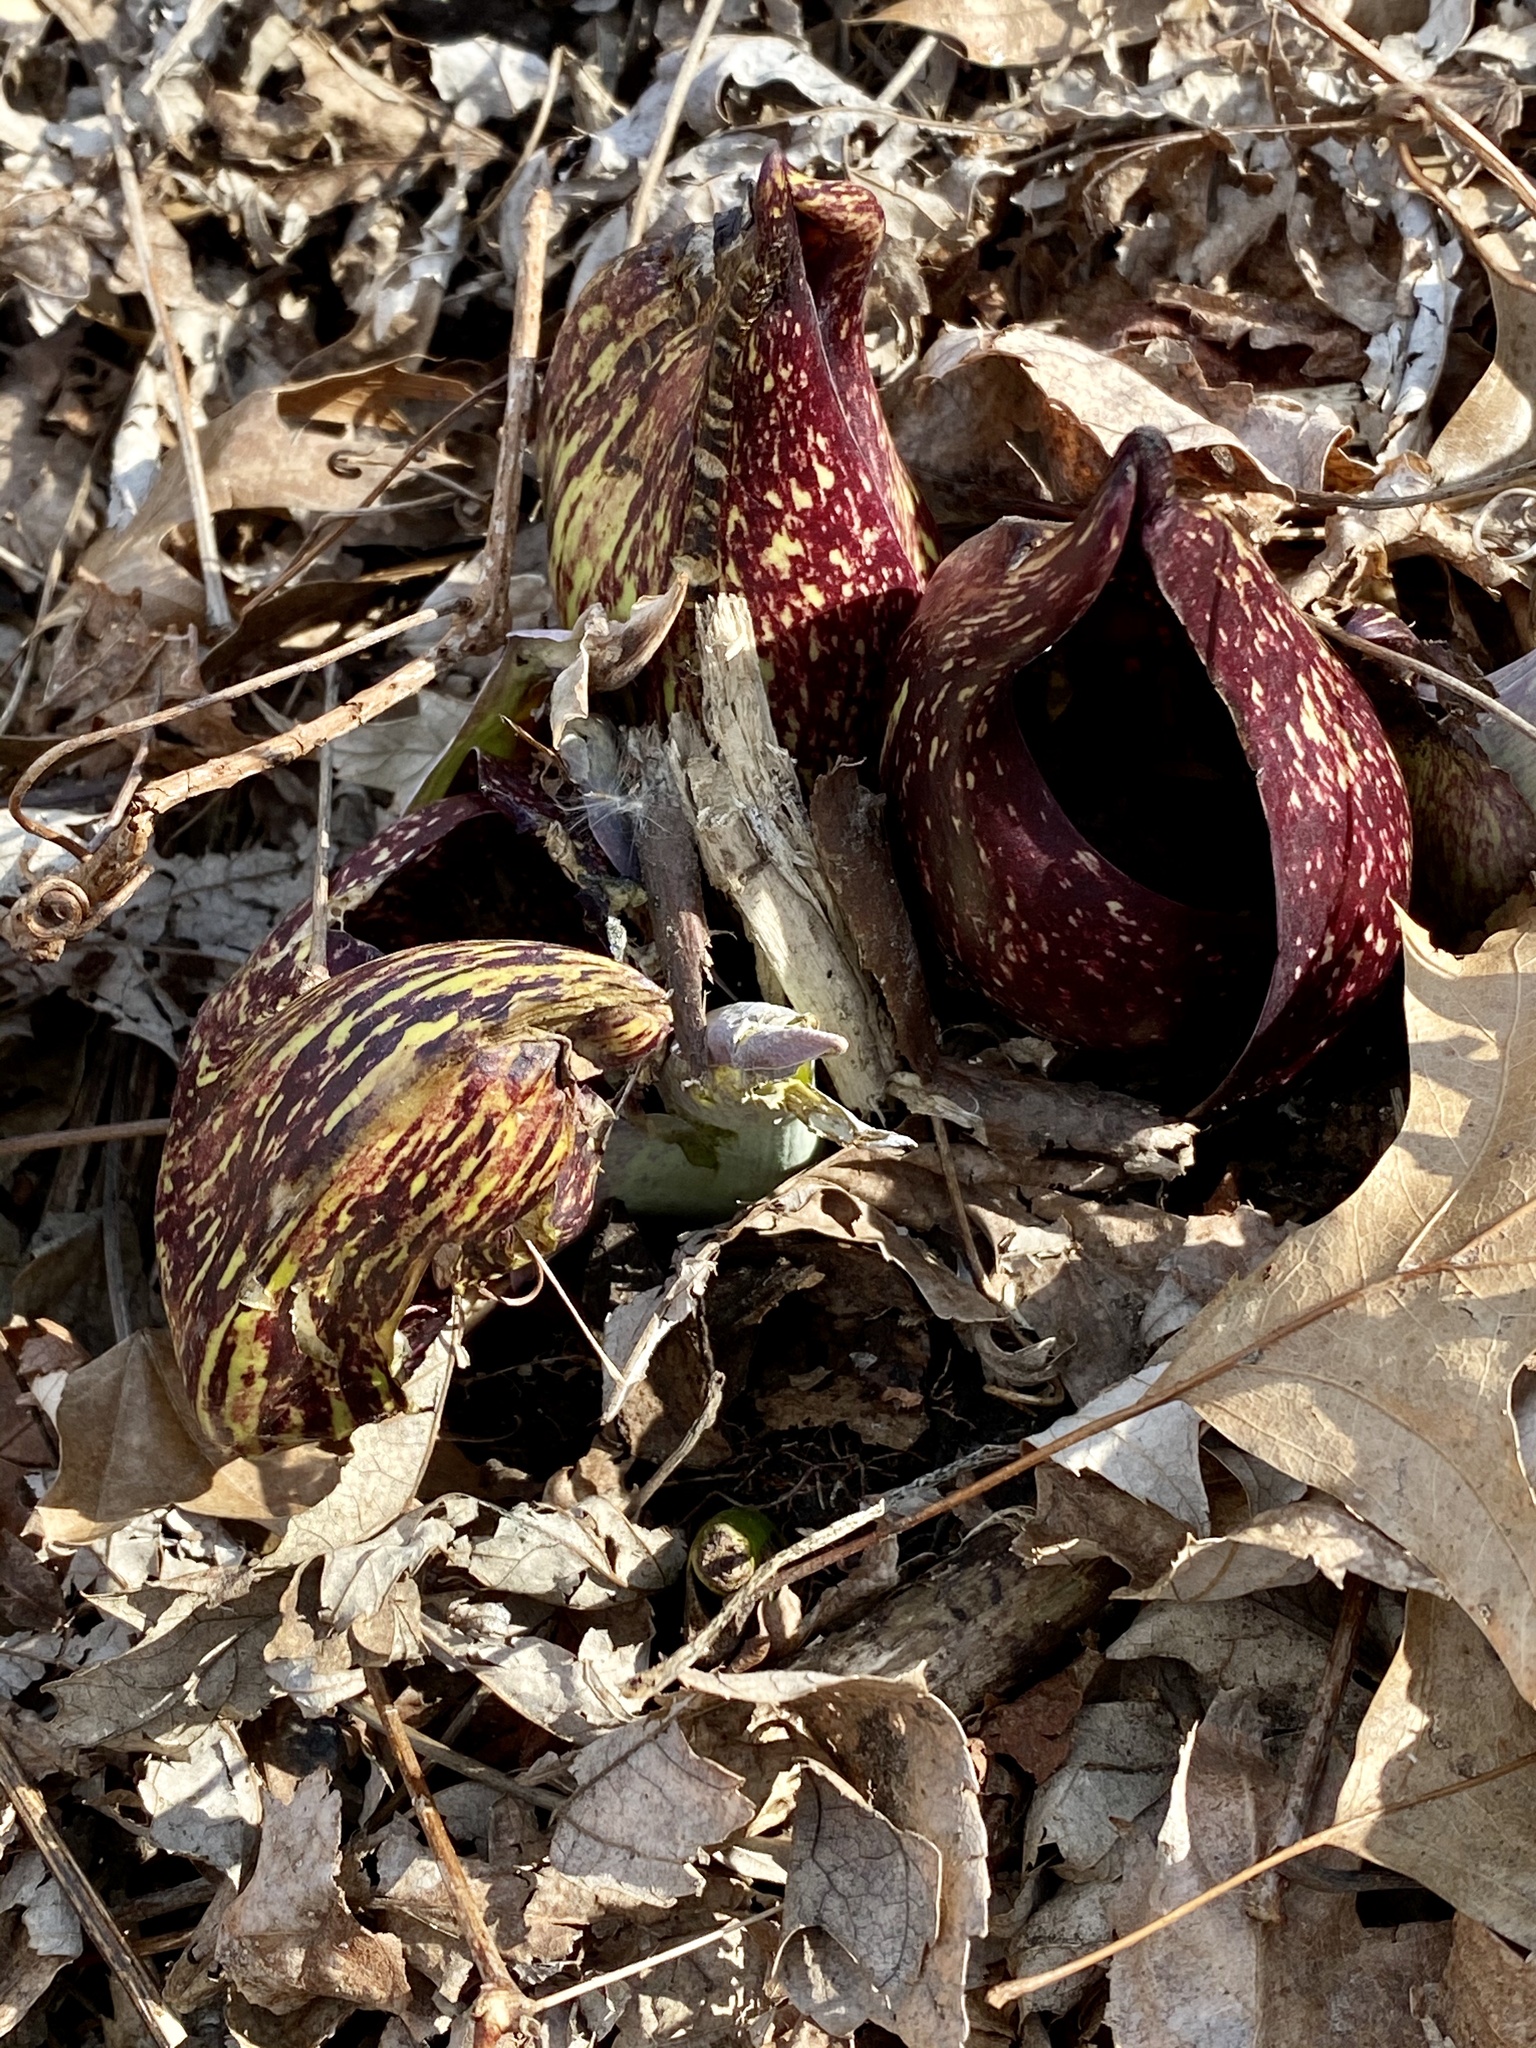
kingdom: Plantae
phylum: Tracheophyta
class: Liliopsida
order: Alismatales
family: Araceae
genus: Symplocarpus
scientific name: Symplocarpus foetidus
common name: Eastern skunk cabbage
